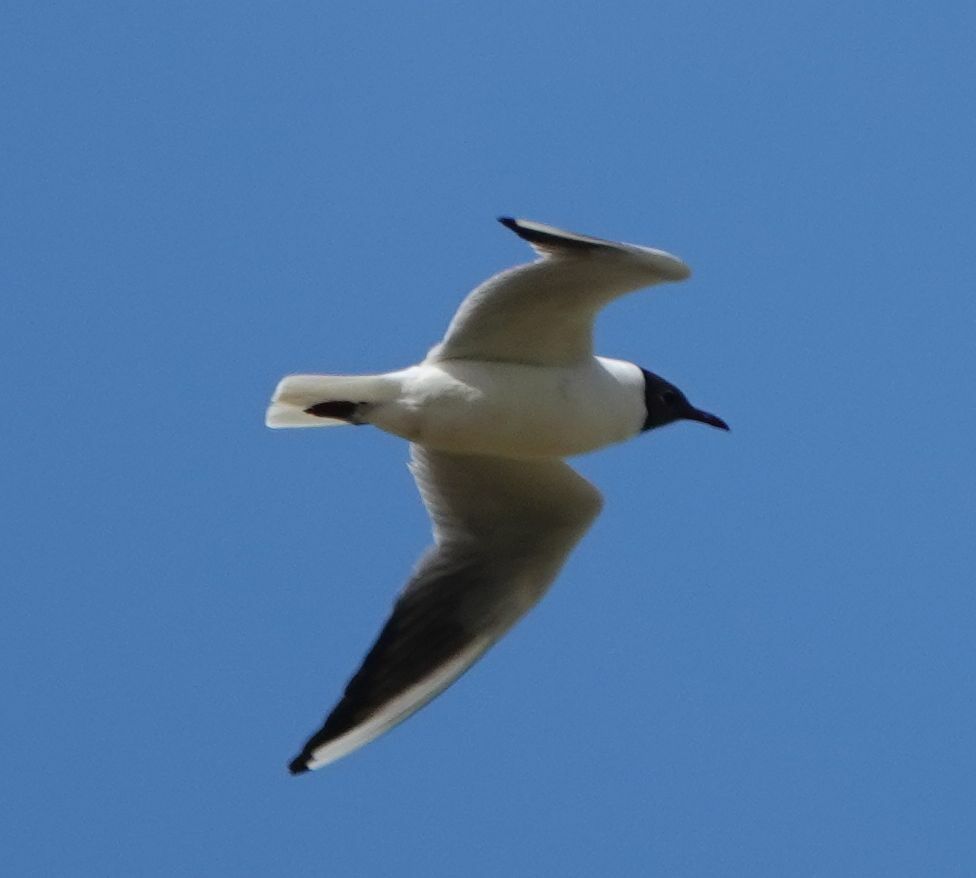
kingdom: Animalia
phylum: Chordata
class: Aves
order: Charadriiformes
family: Laridae
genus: Chroicocephalus
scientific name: Chroicocephalus ridibundus
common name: Black-headed gull
